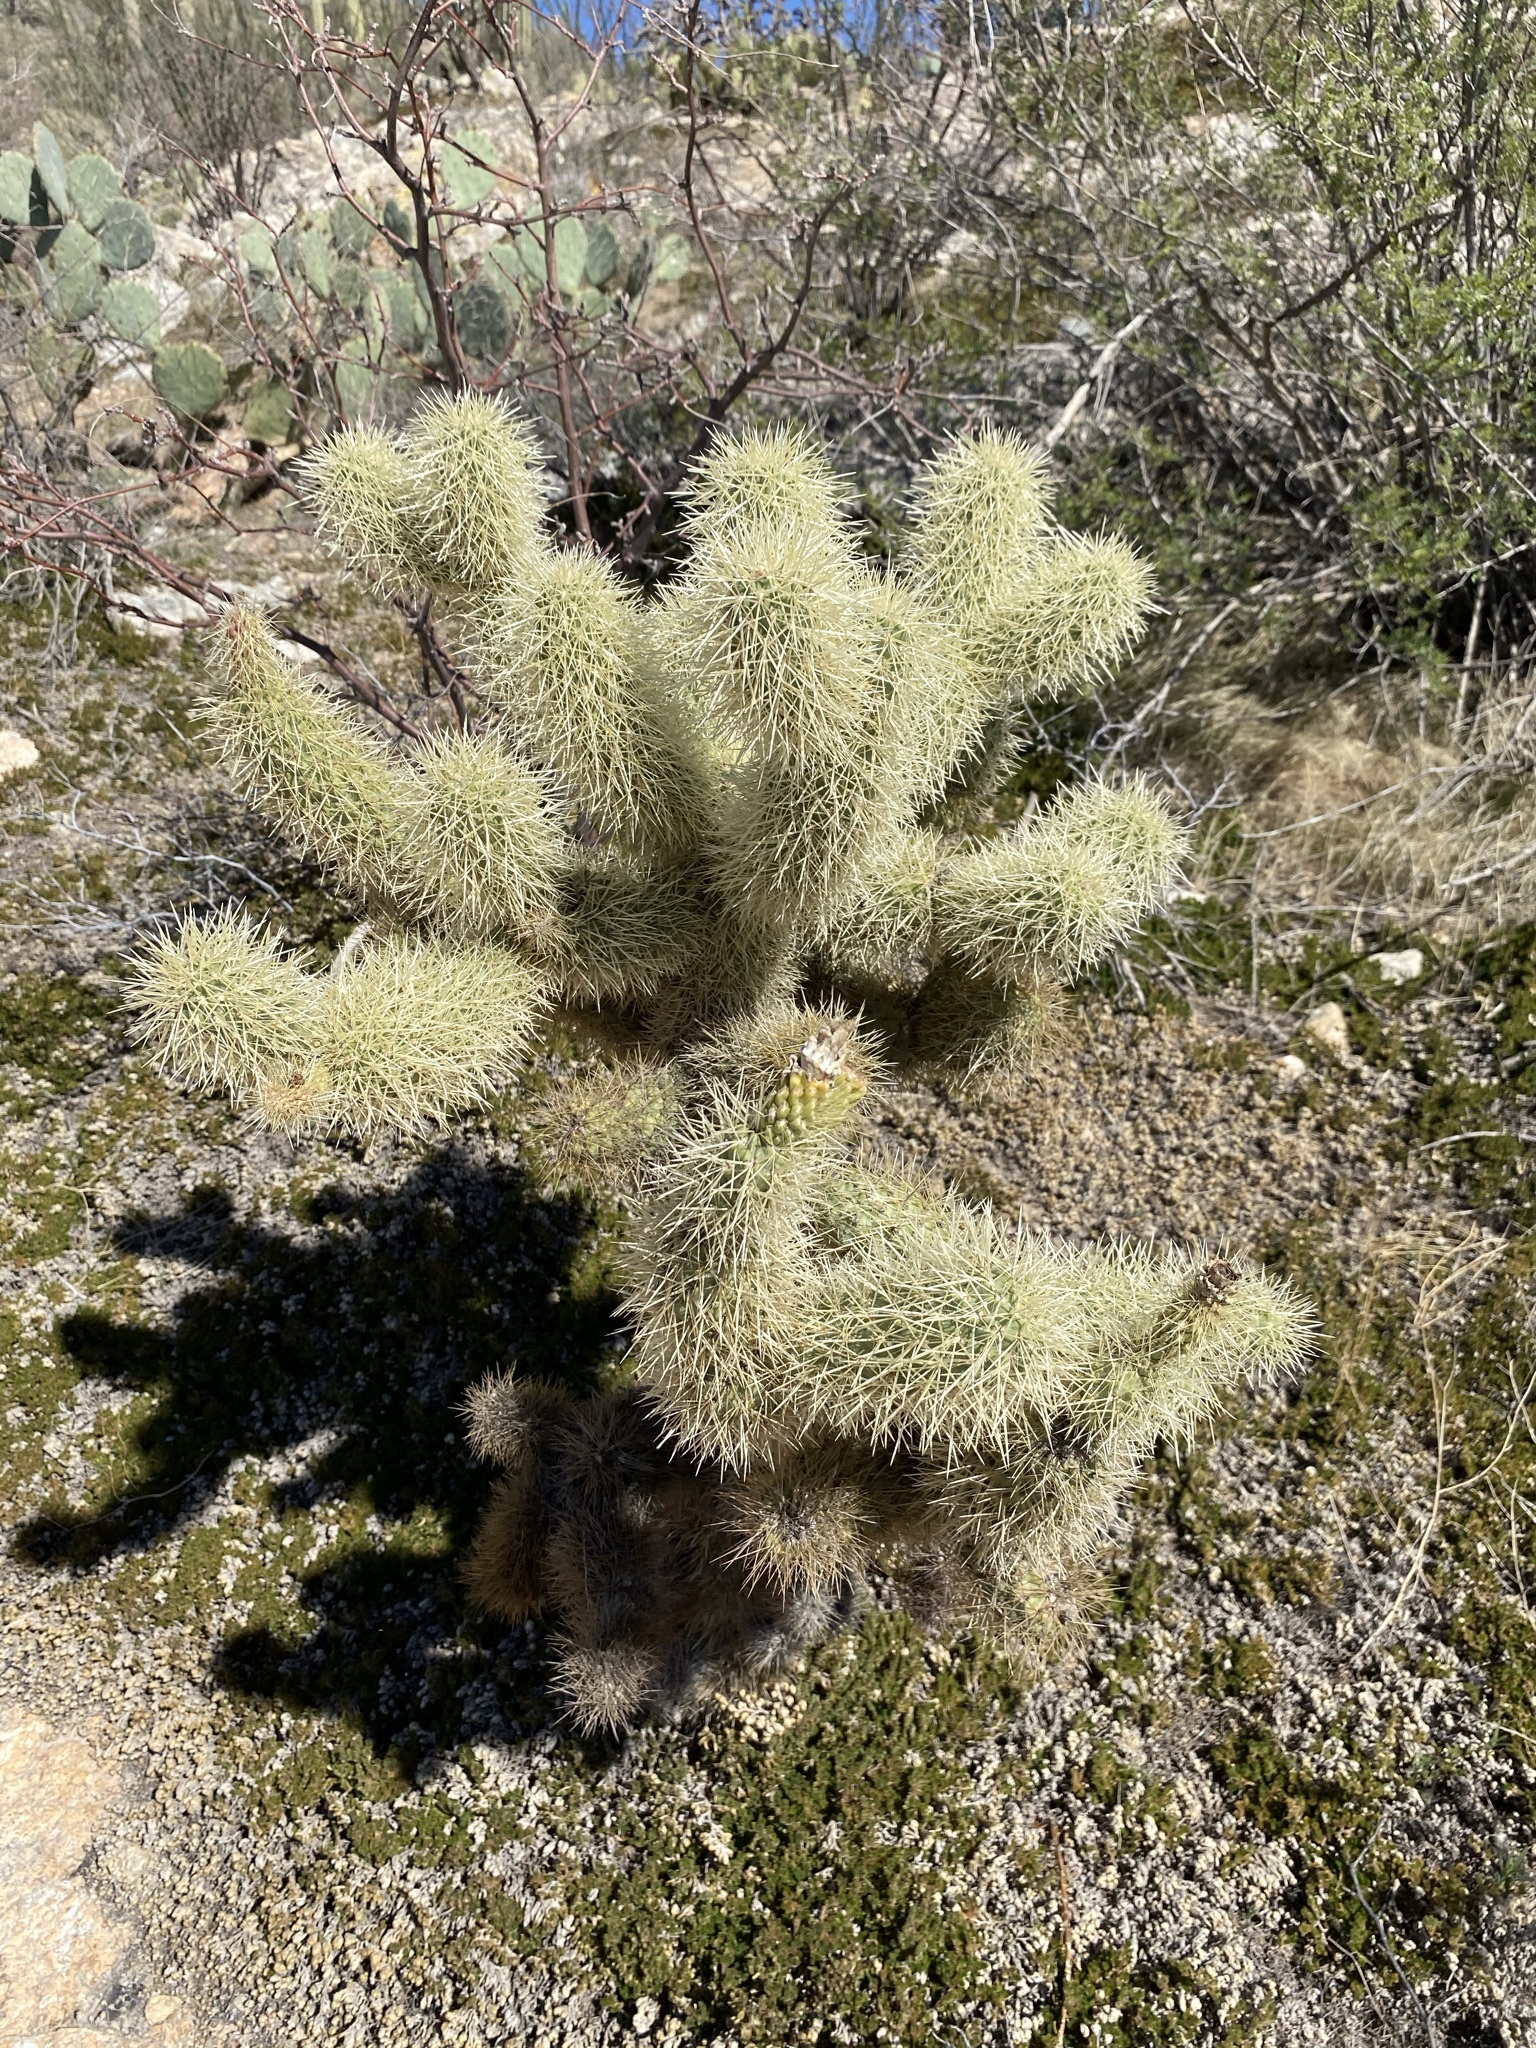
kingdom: Plantae
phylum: Tracheophyta
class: Magnoliopsida
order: Caryophyllales
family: Cactaceae
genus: Cylindropuntia
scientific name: Cylindropuntia fosbergii
